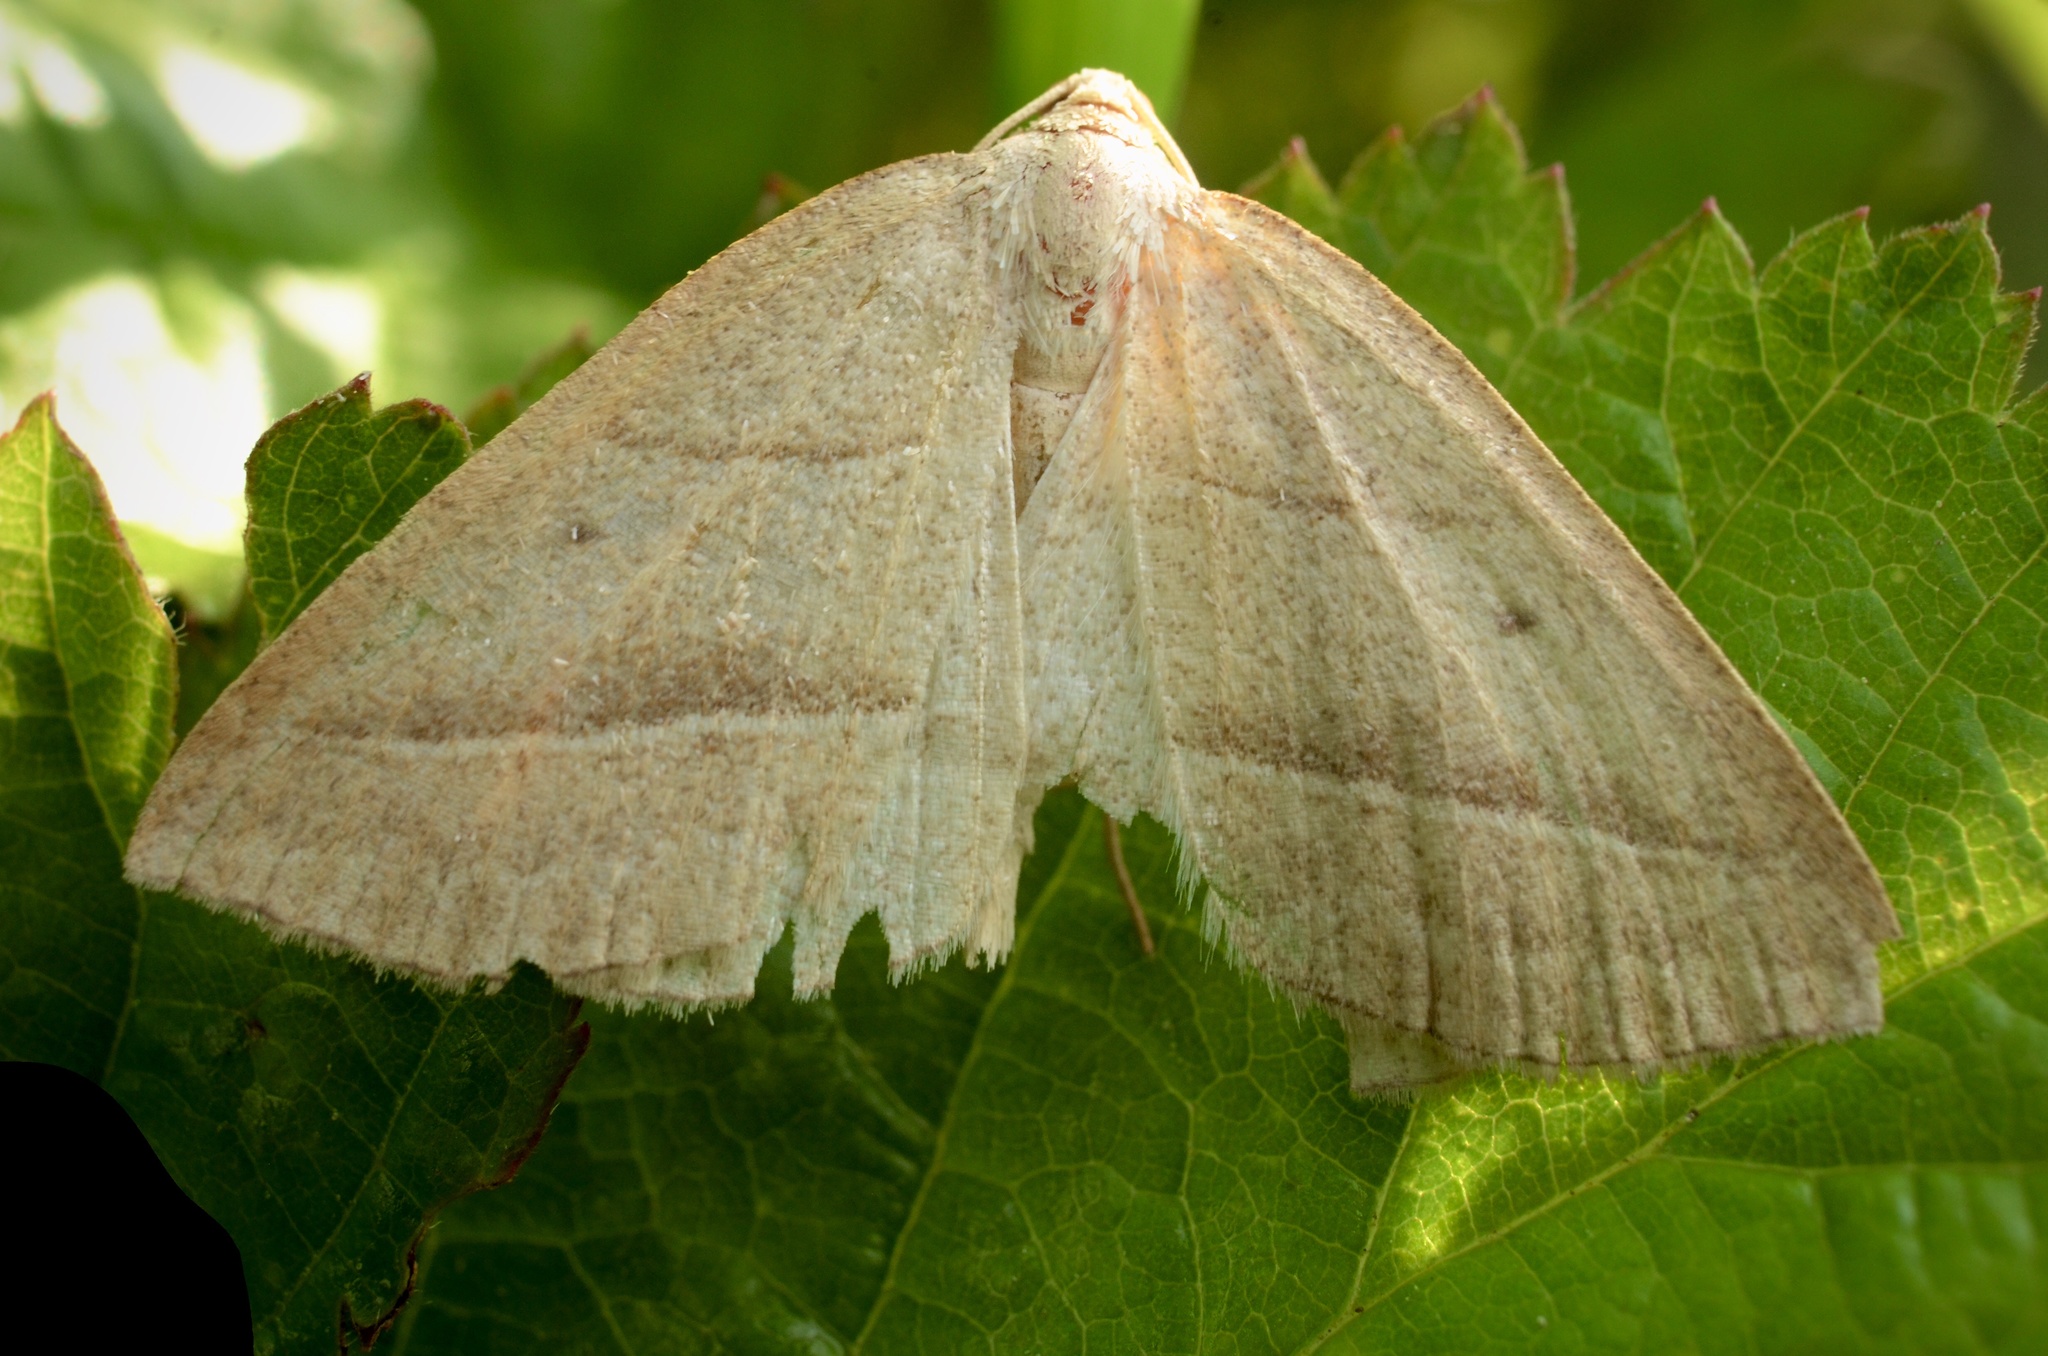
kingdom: Animalia
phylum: Arthropoda
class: Insecta
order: Lepidoptera
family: Pterophoridae
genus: Pterophorus
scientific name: Pterophorus Petrophora chlorosata
